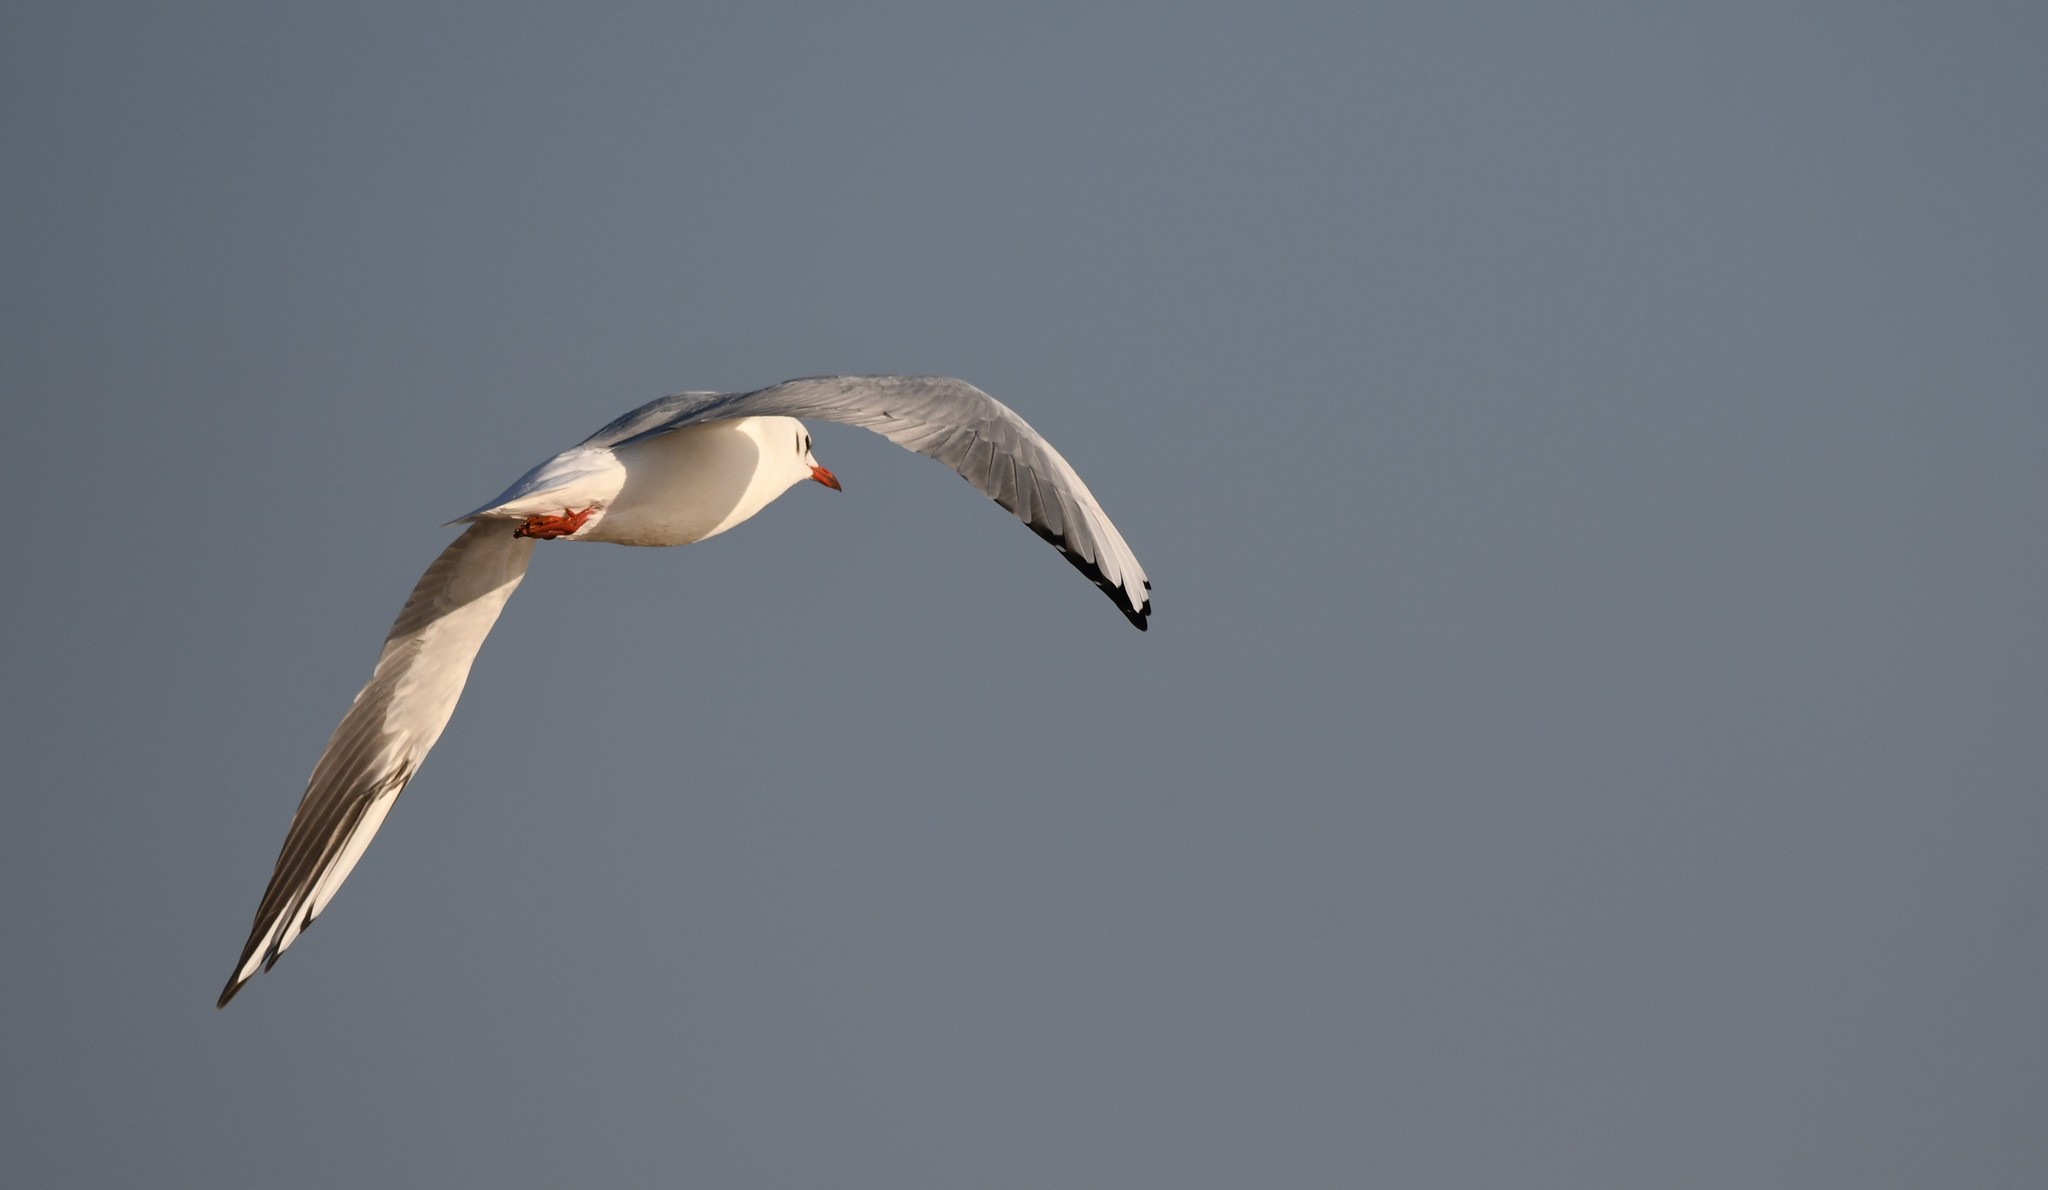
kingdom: Animalia
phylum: Chordata
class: Aves
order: Charadriiformes
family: Laridae
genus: Chroicocephalus
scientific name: Chroicocephalus ridibundus
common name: Black-headed gull
